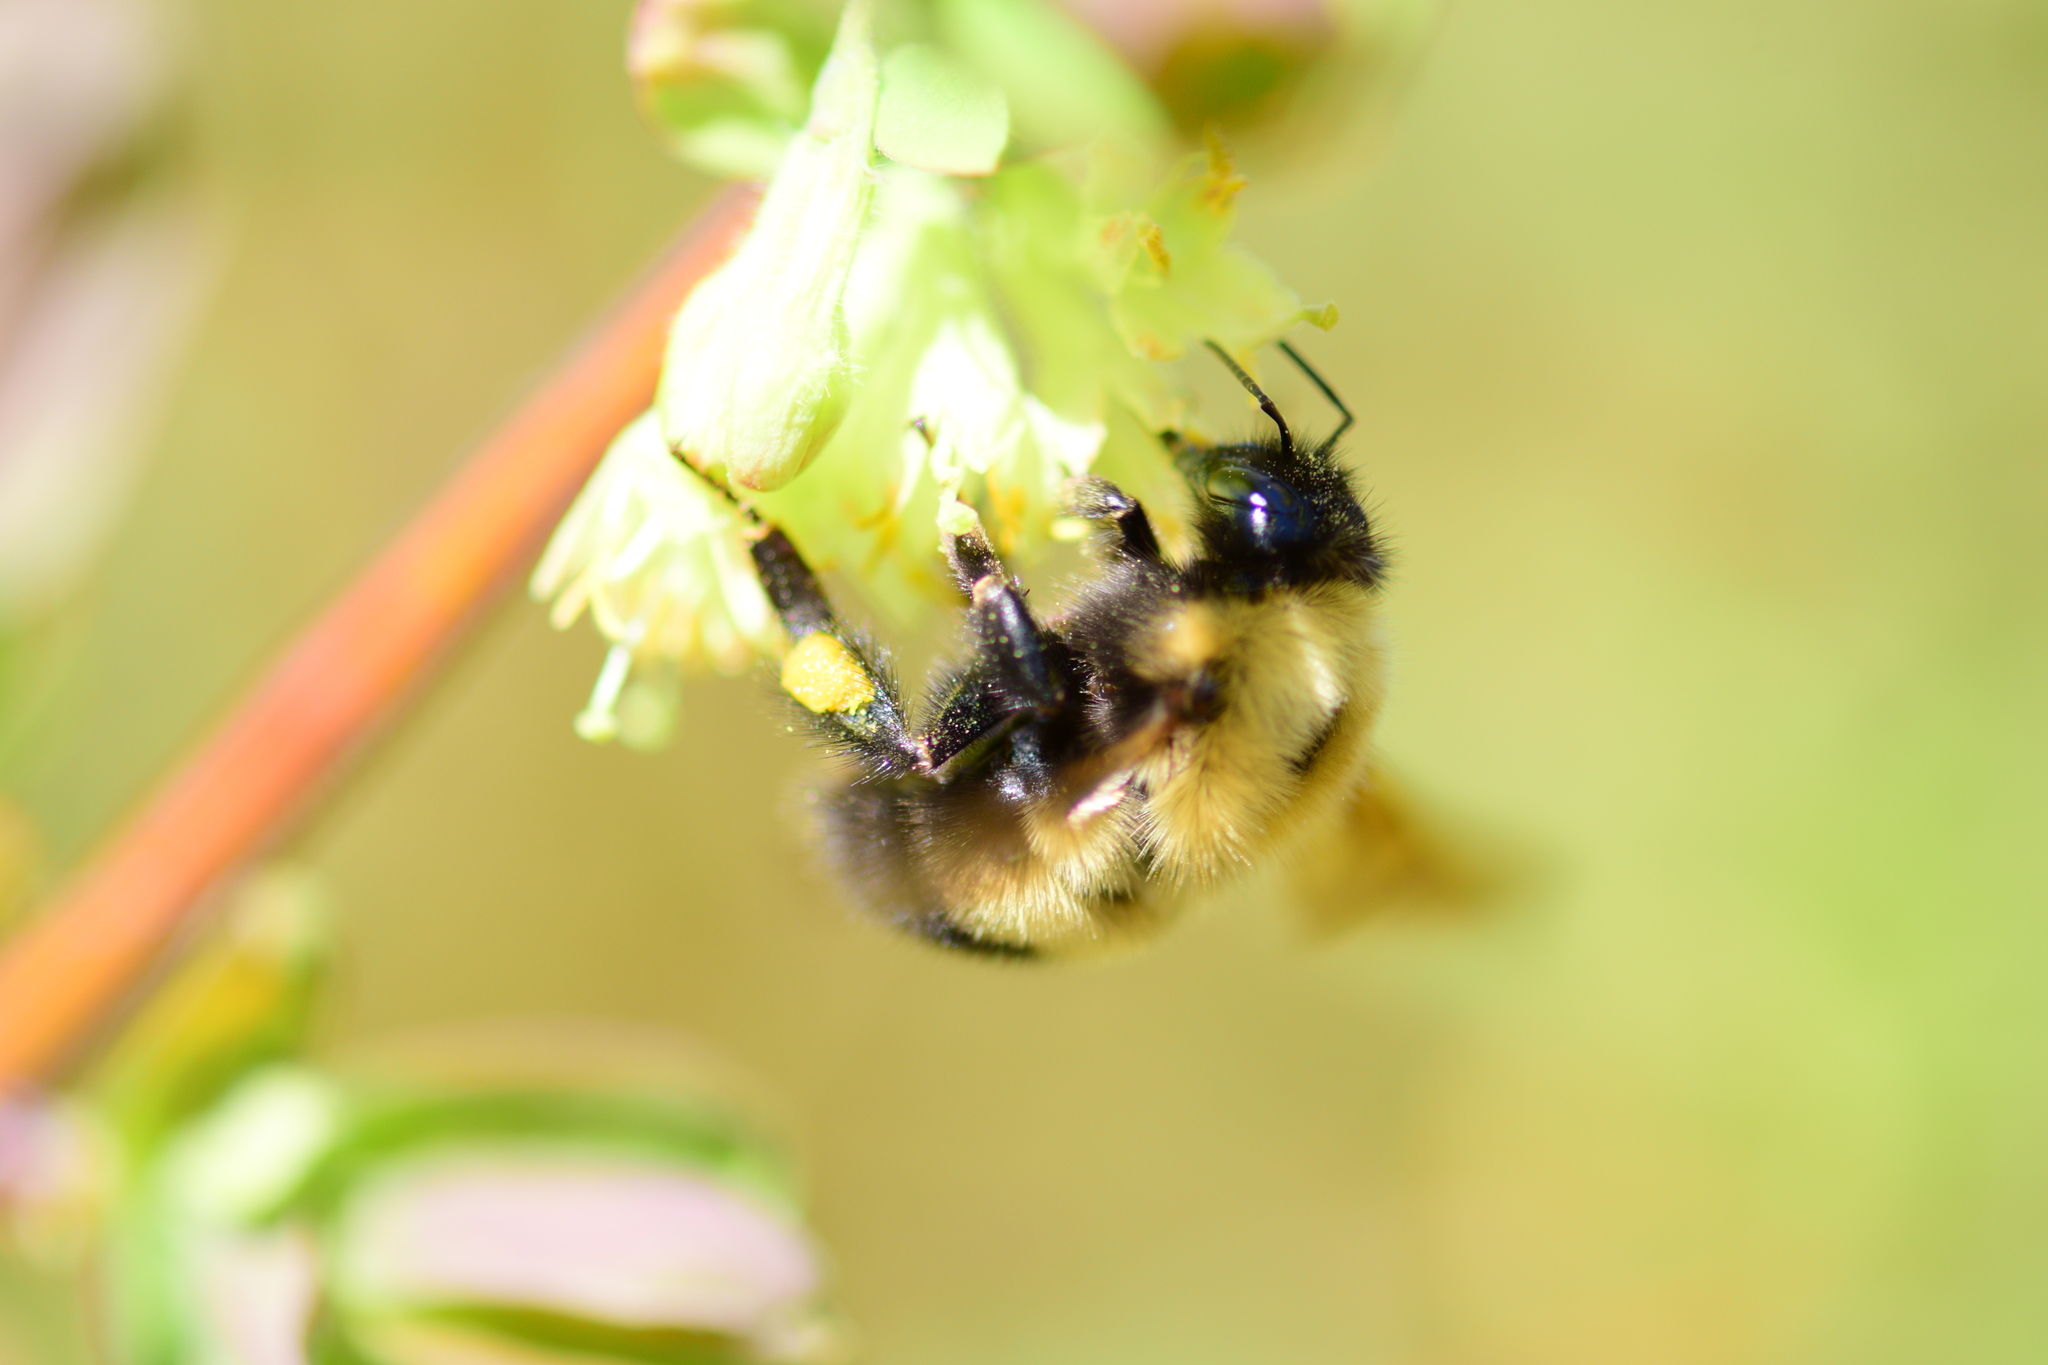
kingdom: Animalia
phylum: Arthropoda
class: Insecta
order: Hymenoptera
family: Apidae
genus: Bombus
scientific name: Bombus perplexus
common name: Confusing bumble bee
